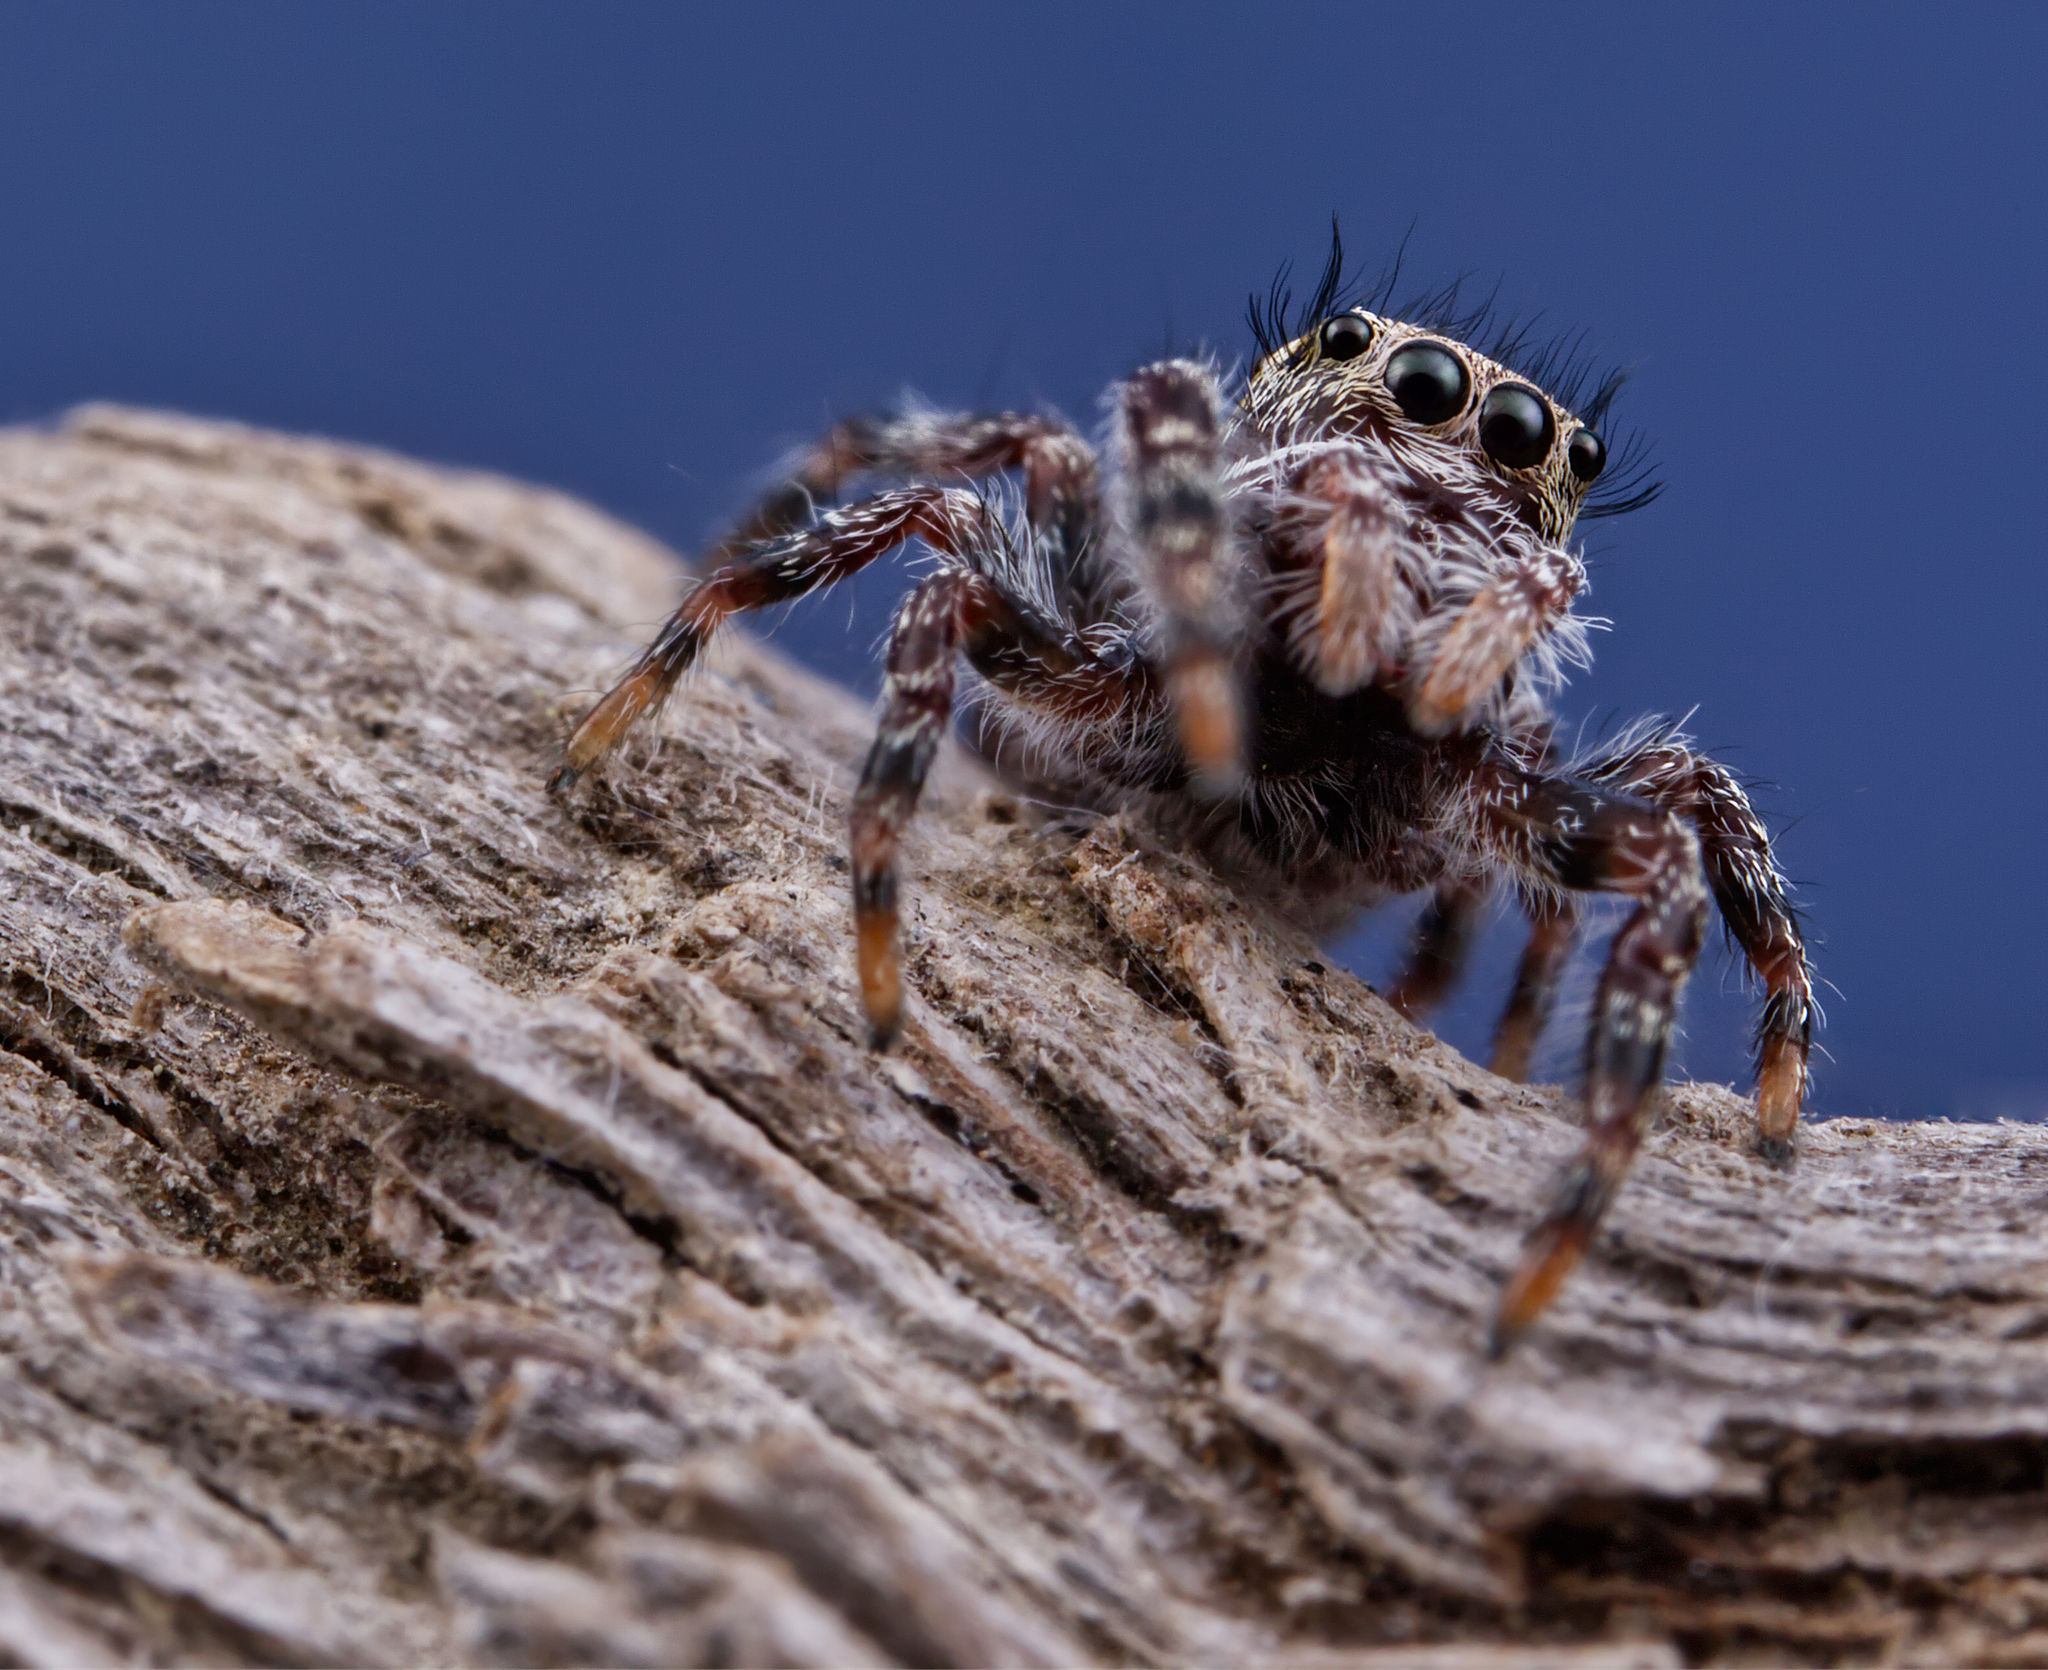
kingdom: Animalia
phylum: Arthropoda
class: Arachnida
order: Araneae
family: Salticidae
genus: Phidippus
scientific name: Phidippus putnami
